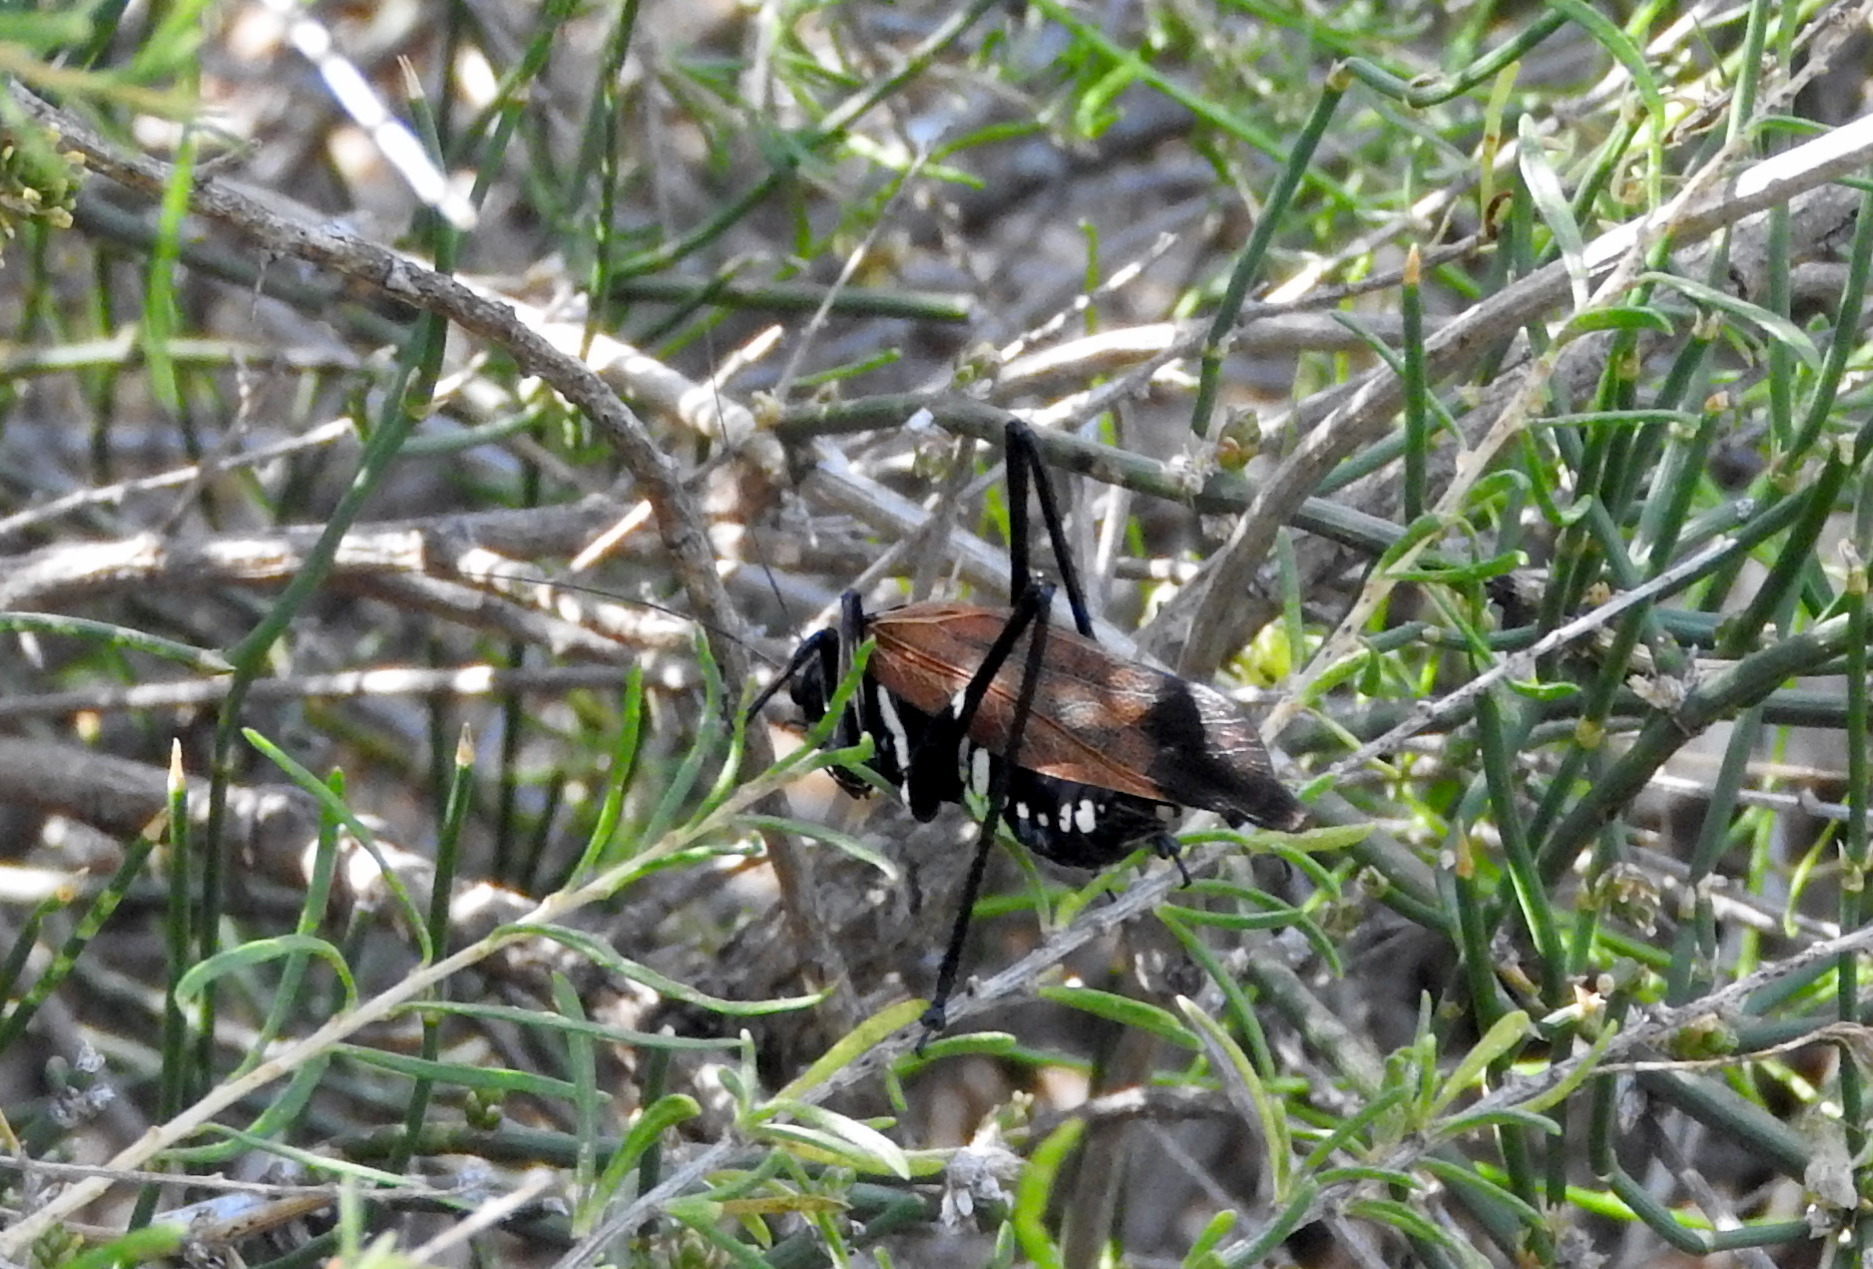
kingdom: Animalia
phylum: Arthropoda
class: Insecta
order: Orthoptera
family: Tettigoniidae
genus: Scaphura
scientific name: Scaphura elegans
